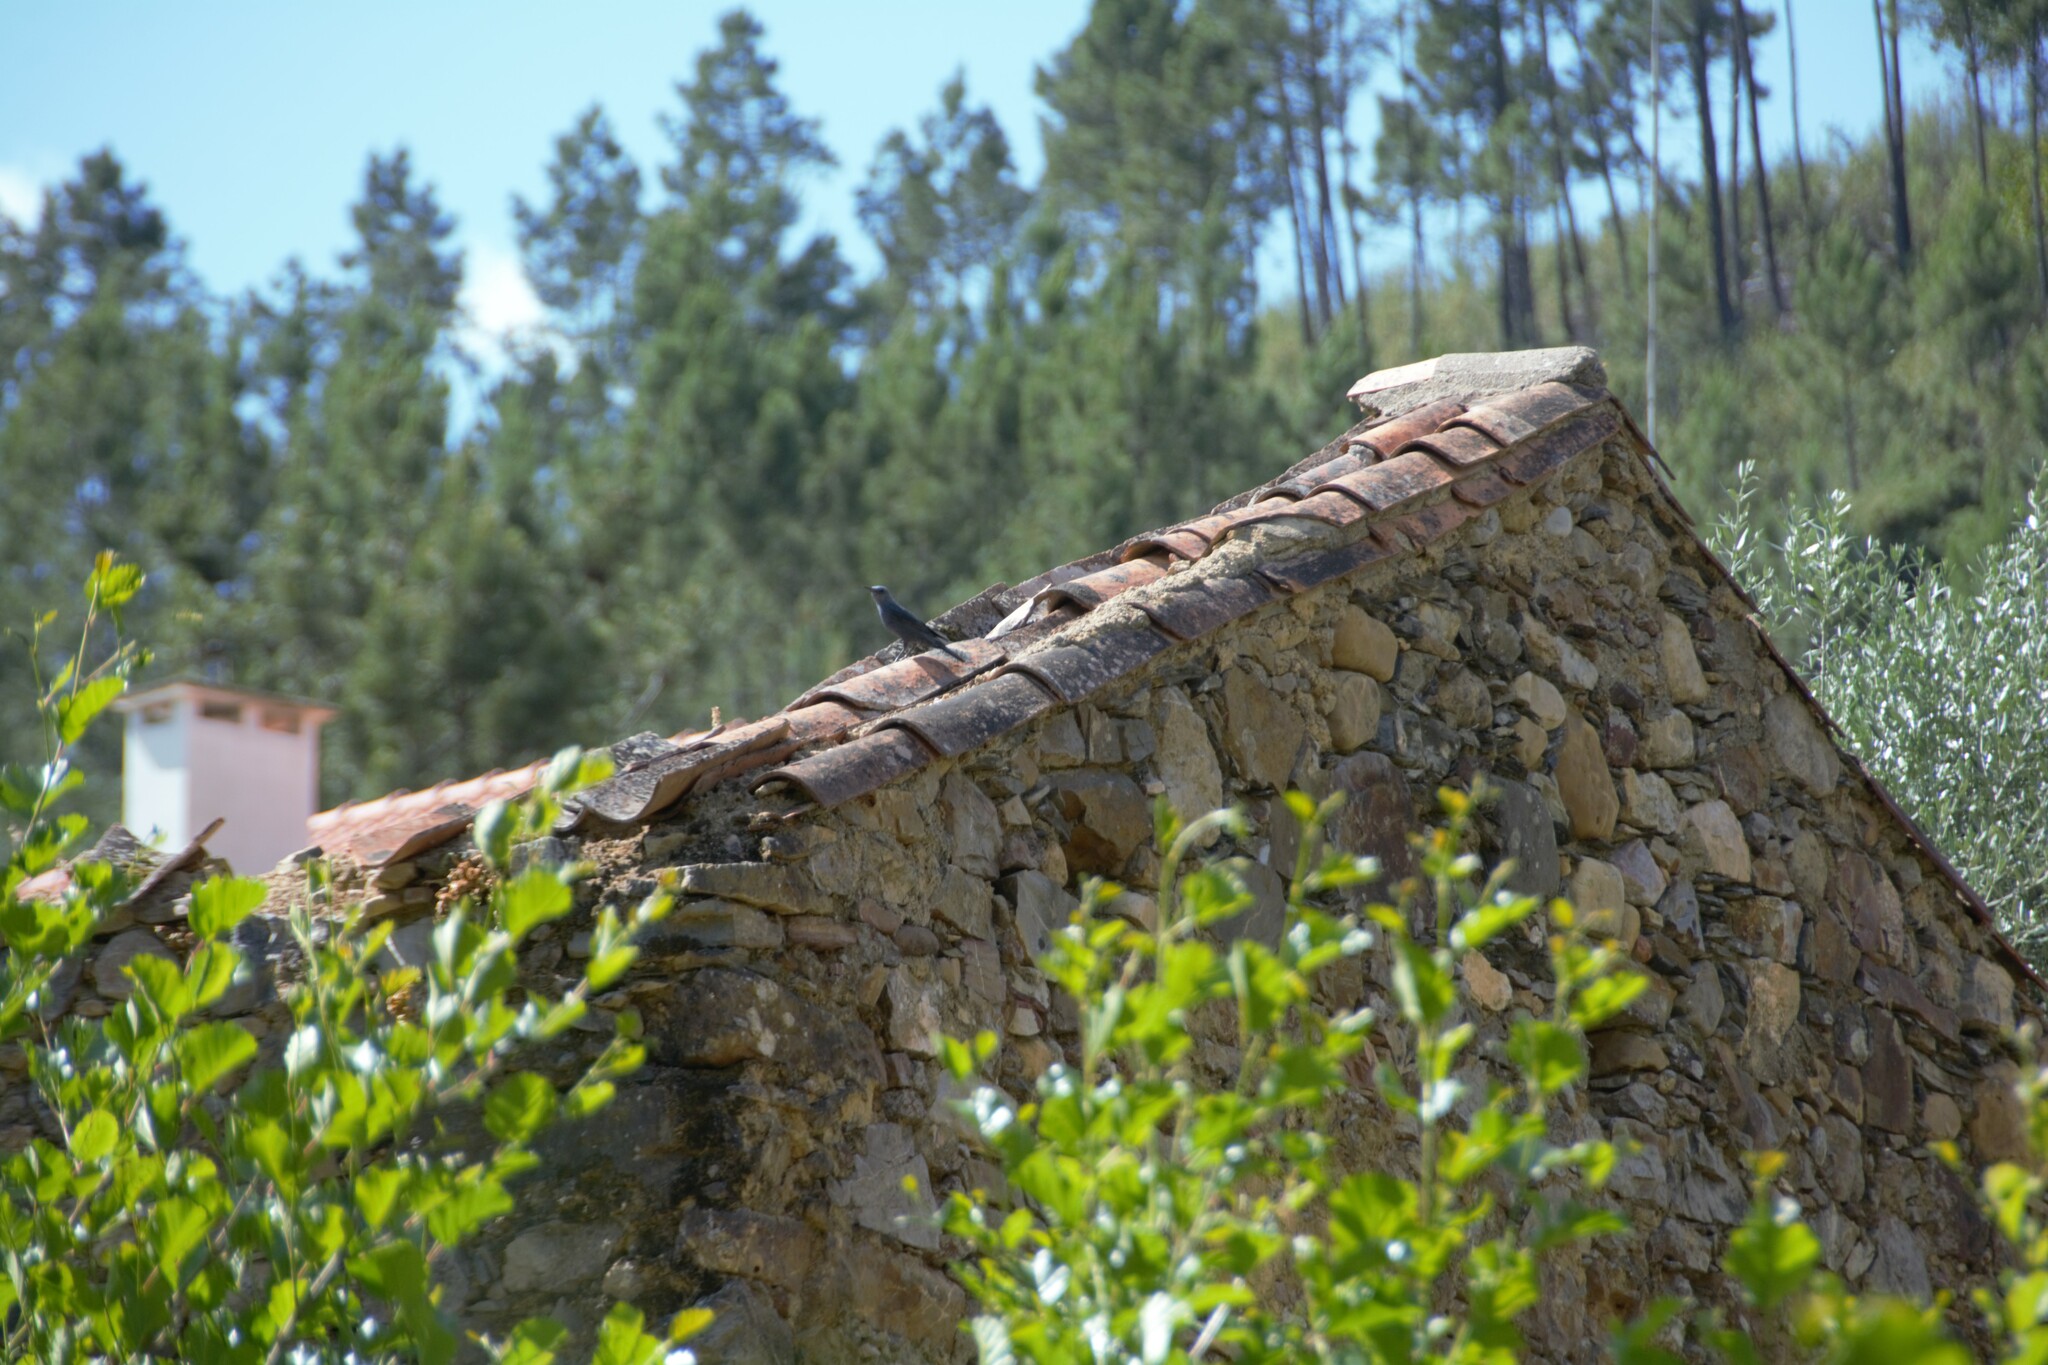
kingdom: Animalia
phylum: Chordata
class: Aves
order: Passeriformes
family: Muscicapidae
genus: Monticola
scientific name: Monticola solitarius
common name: Blue rock thrush
